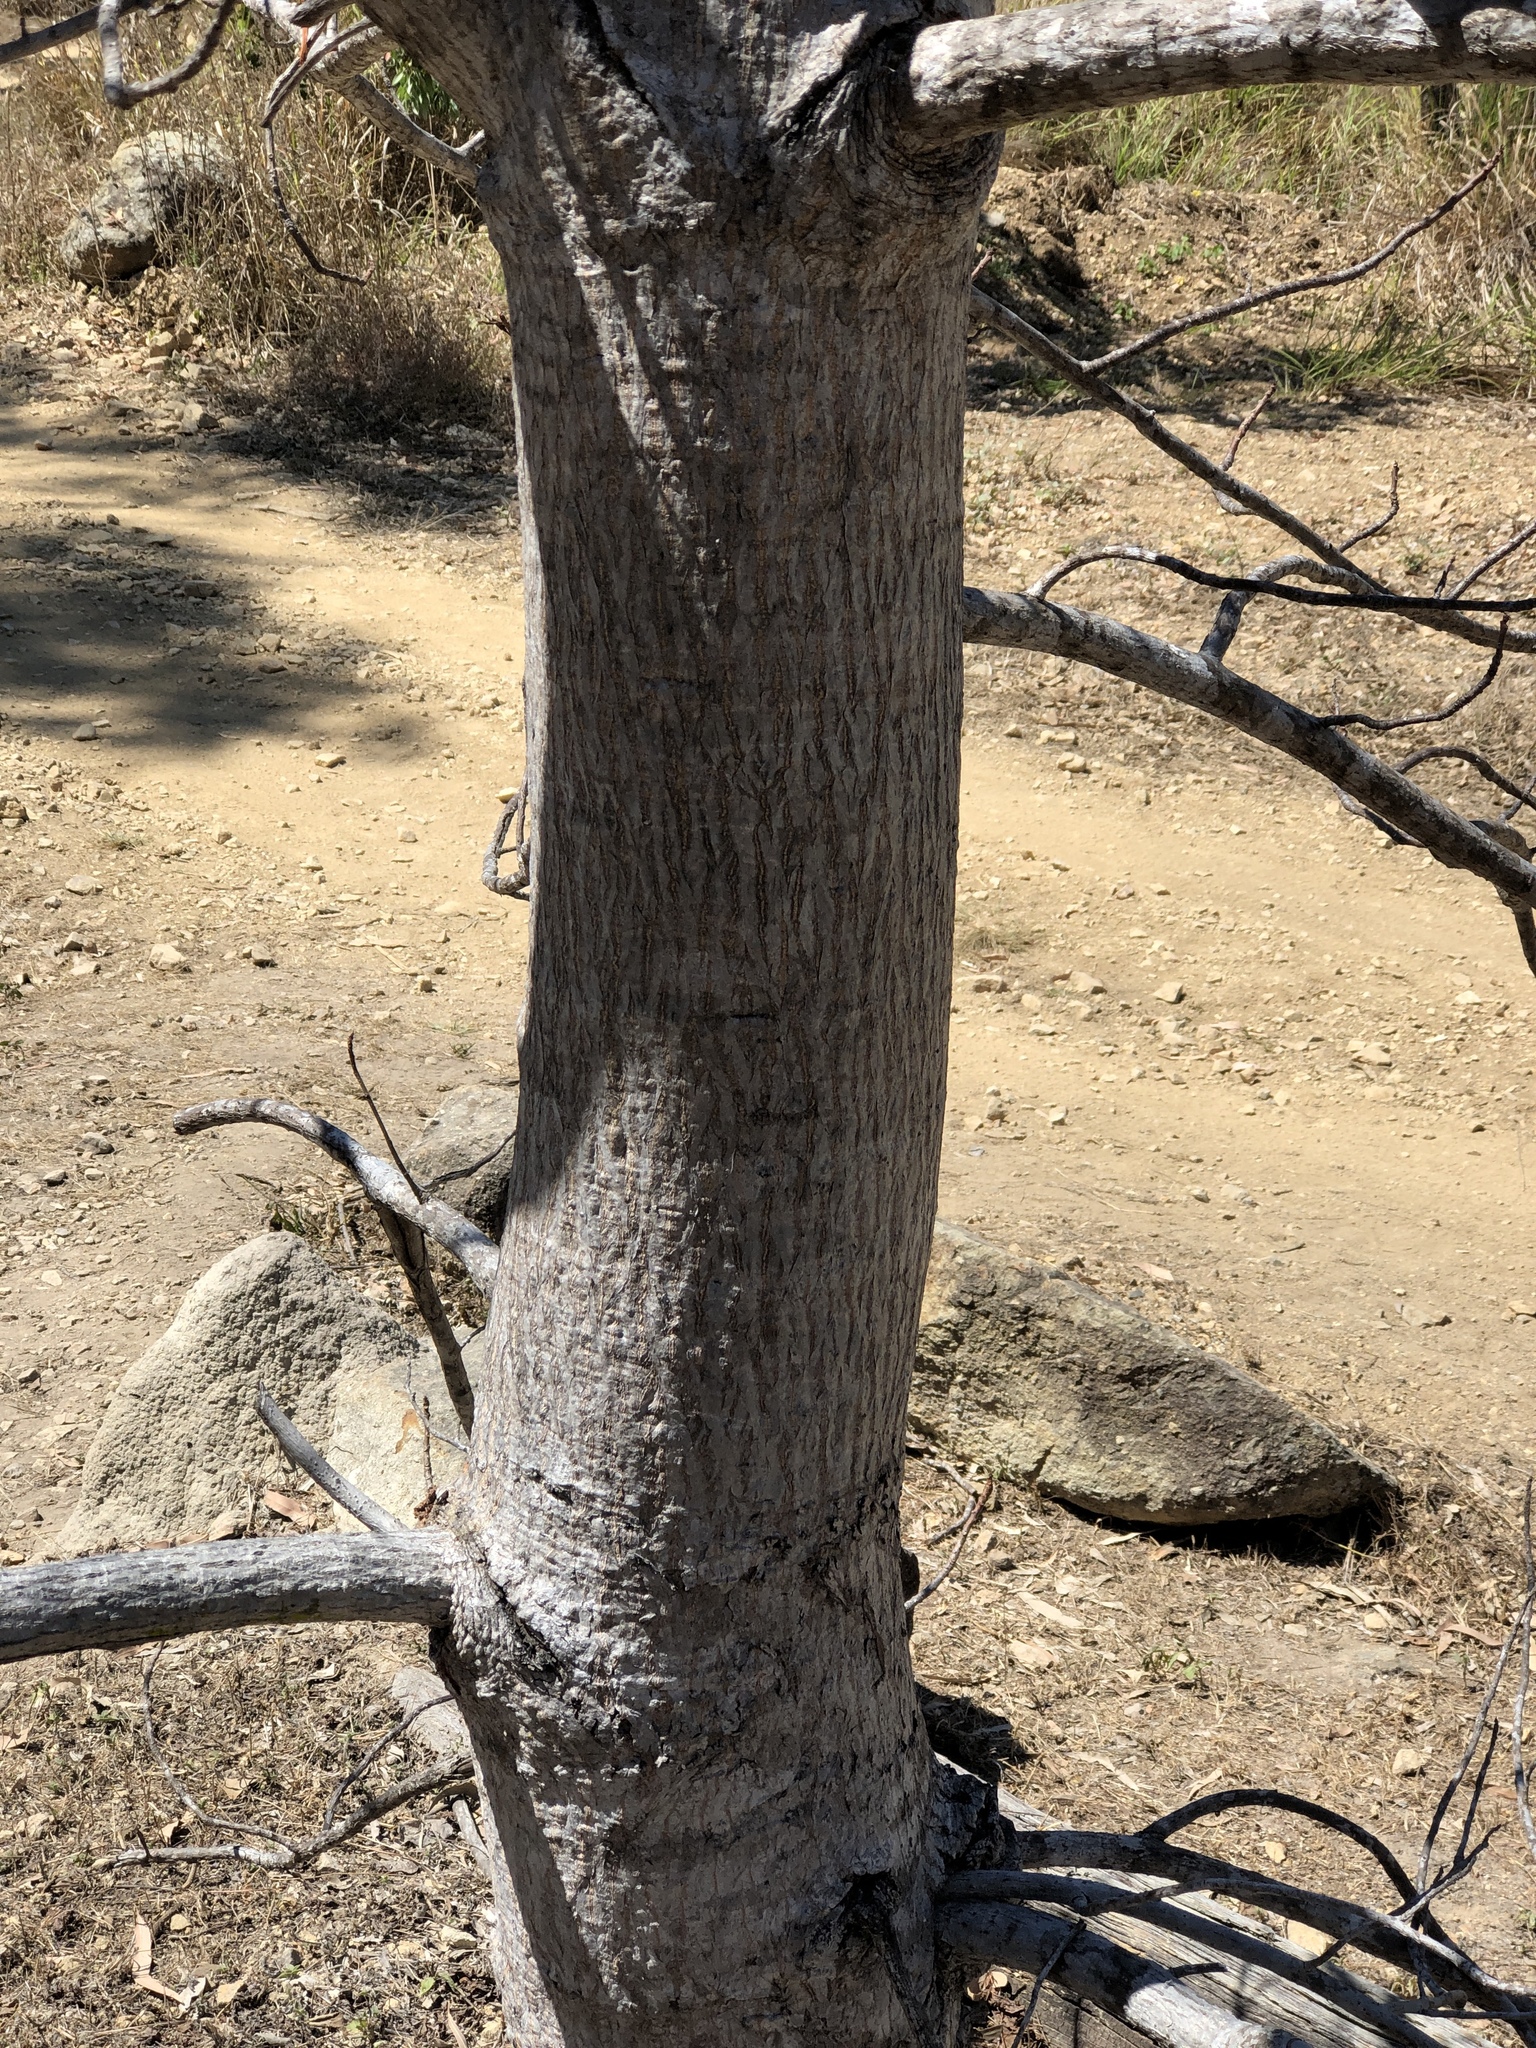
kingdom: Plantae
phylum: Tracheophyta
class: Magnoliopsida
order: Malvales
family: Cochlospermaceae
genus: Cochlospermum
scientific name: Cochlospermum gillivraei
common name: Cottontree
